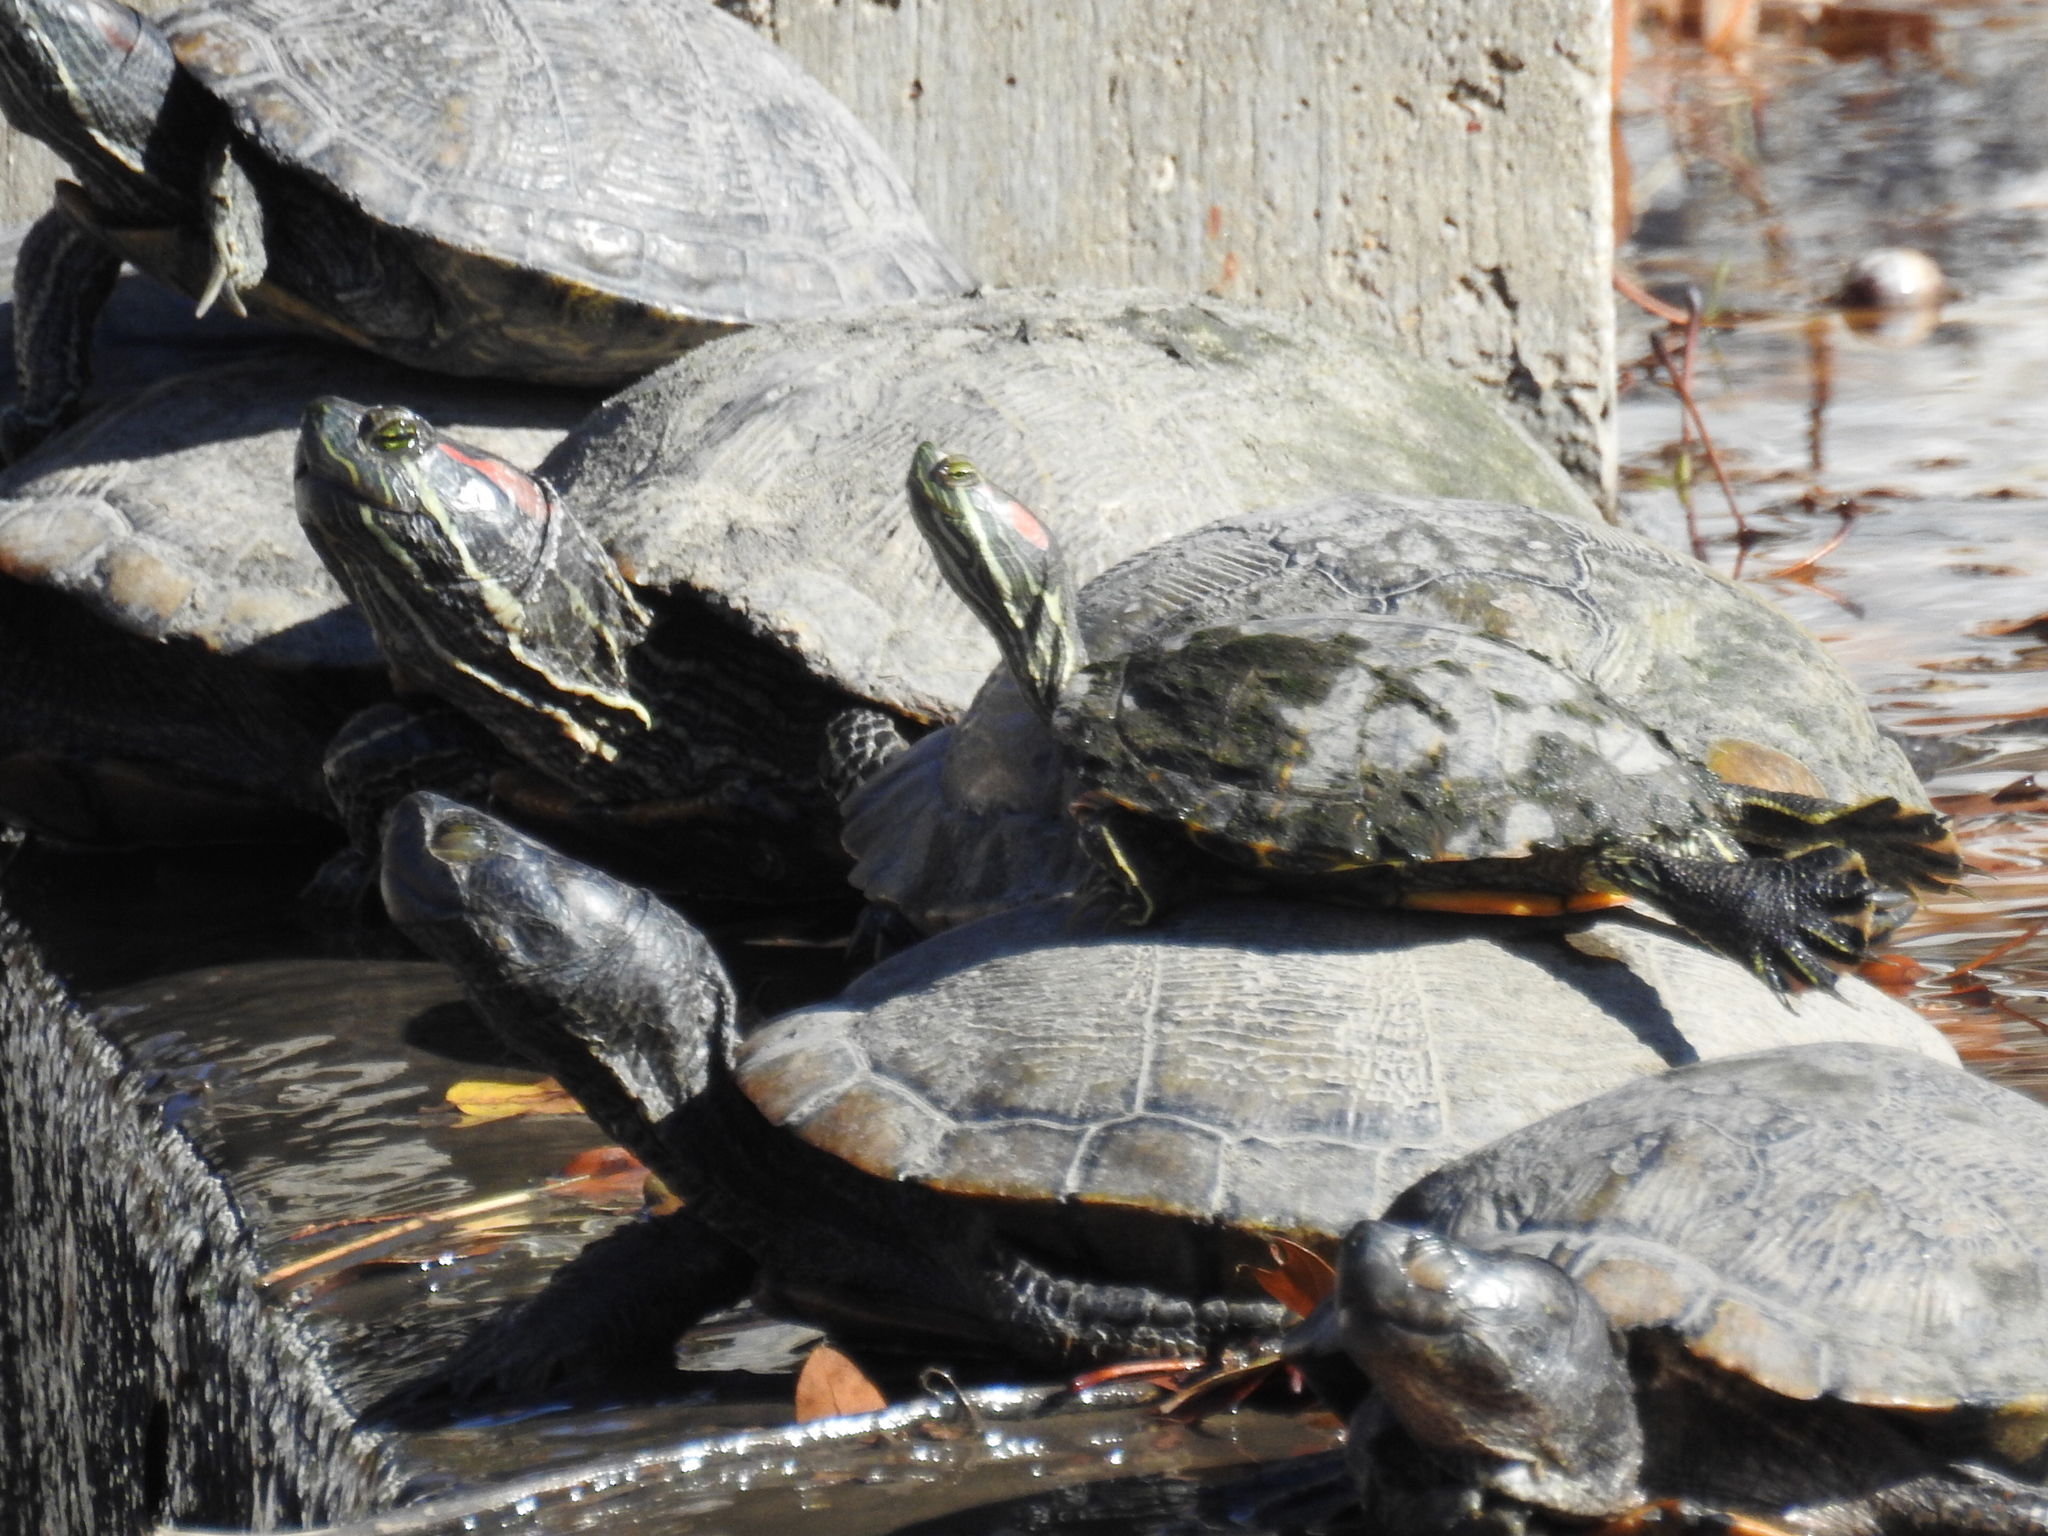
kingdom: Animalia
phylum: Chordata
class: Testudines
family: Emydidae
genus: Trachemys
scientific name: Trachemys scripta
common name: Slider
